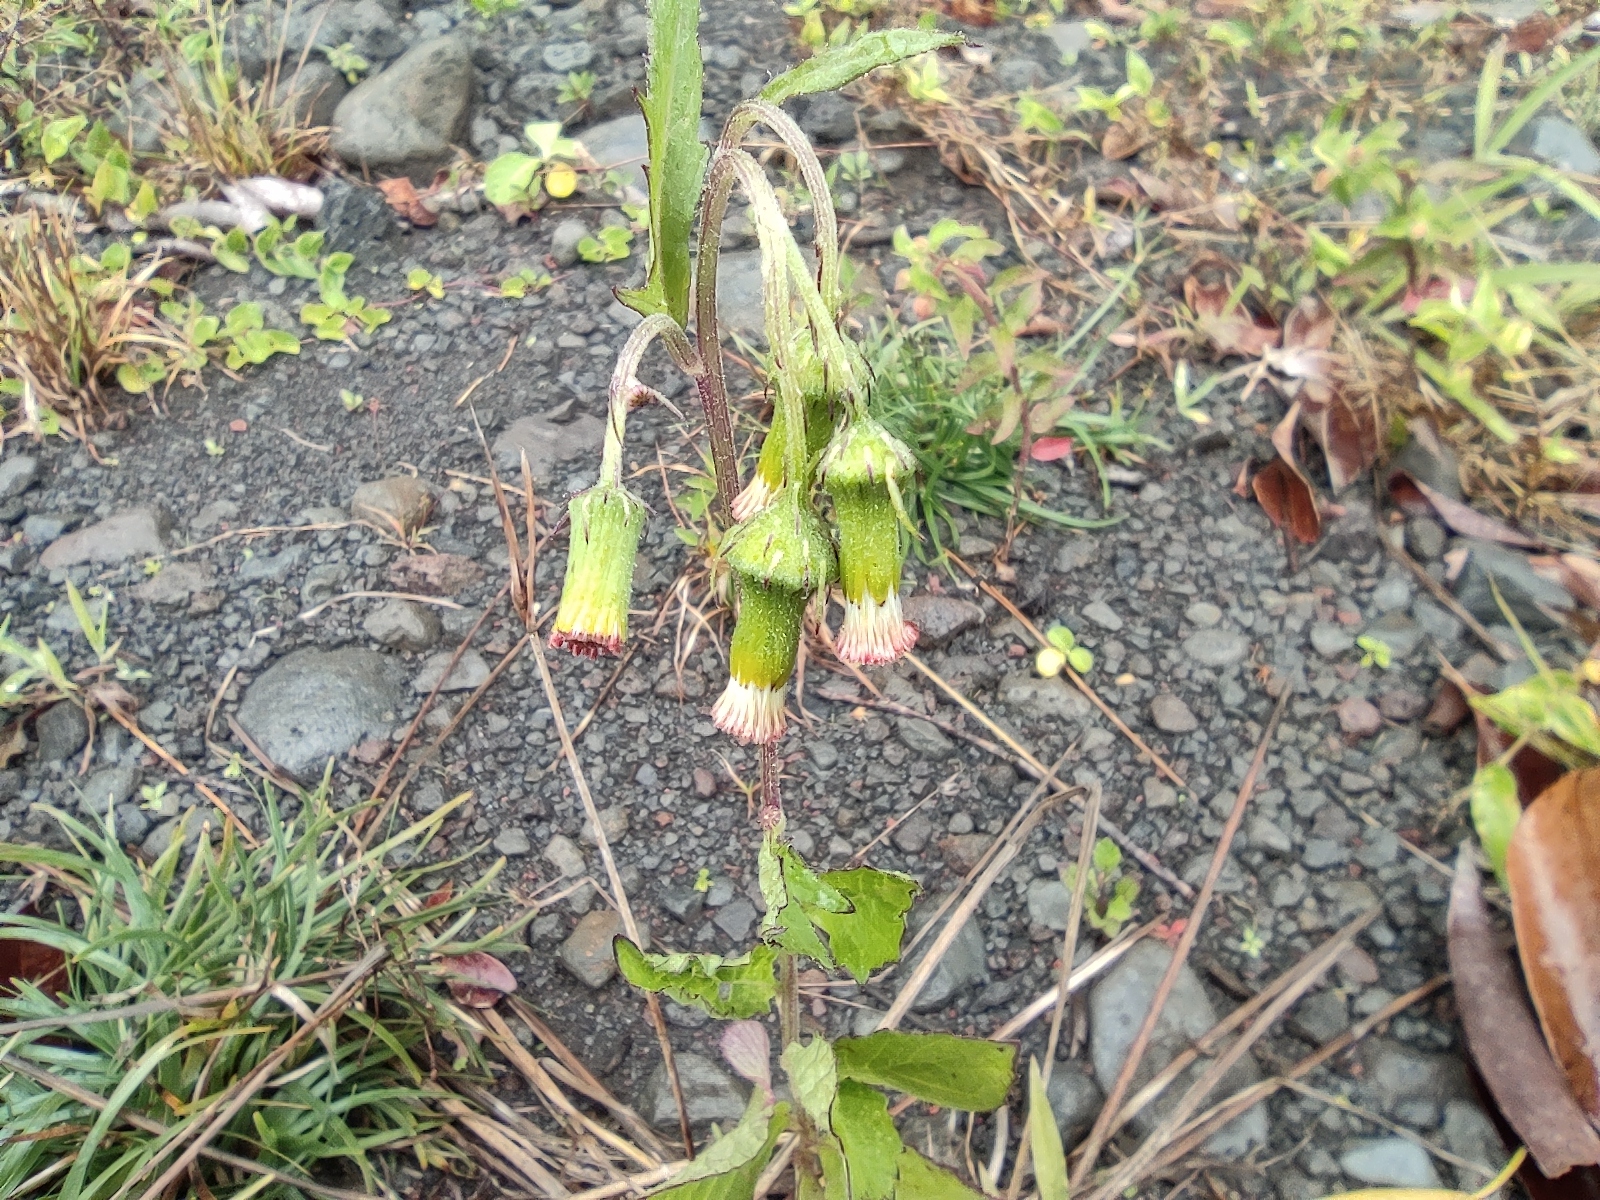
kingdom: Plantae
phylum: Tracheophyta
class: Magnoliopsida
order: Asterales
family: Asteraceae
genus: Crassocephalum
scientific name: Crassocephalum crepidioides
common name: Redflower ragleaf
